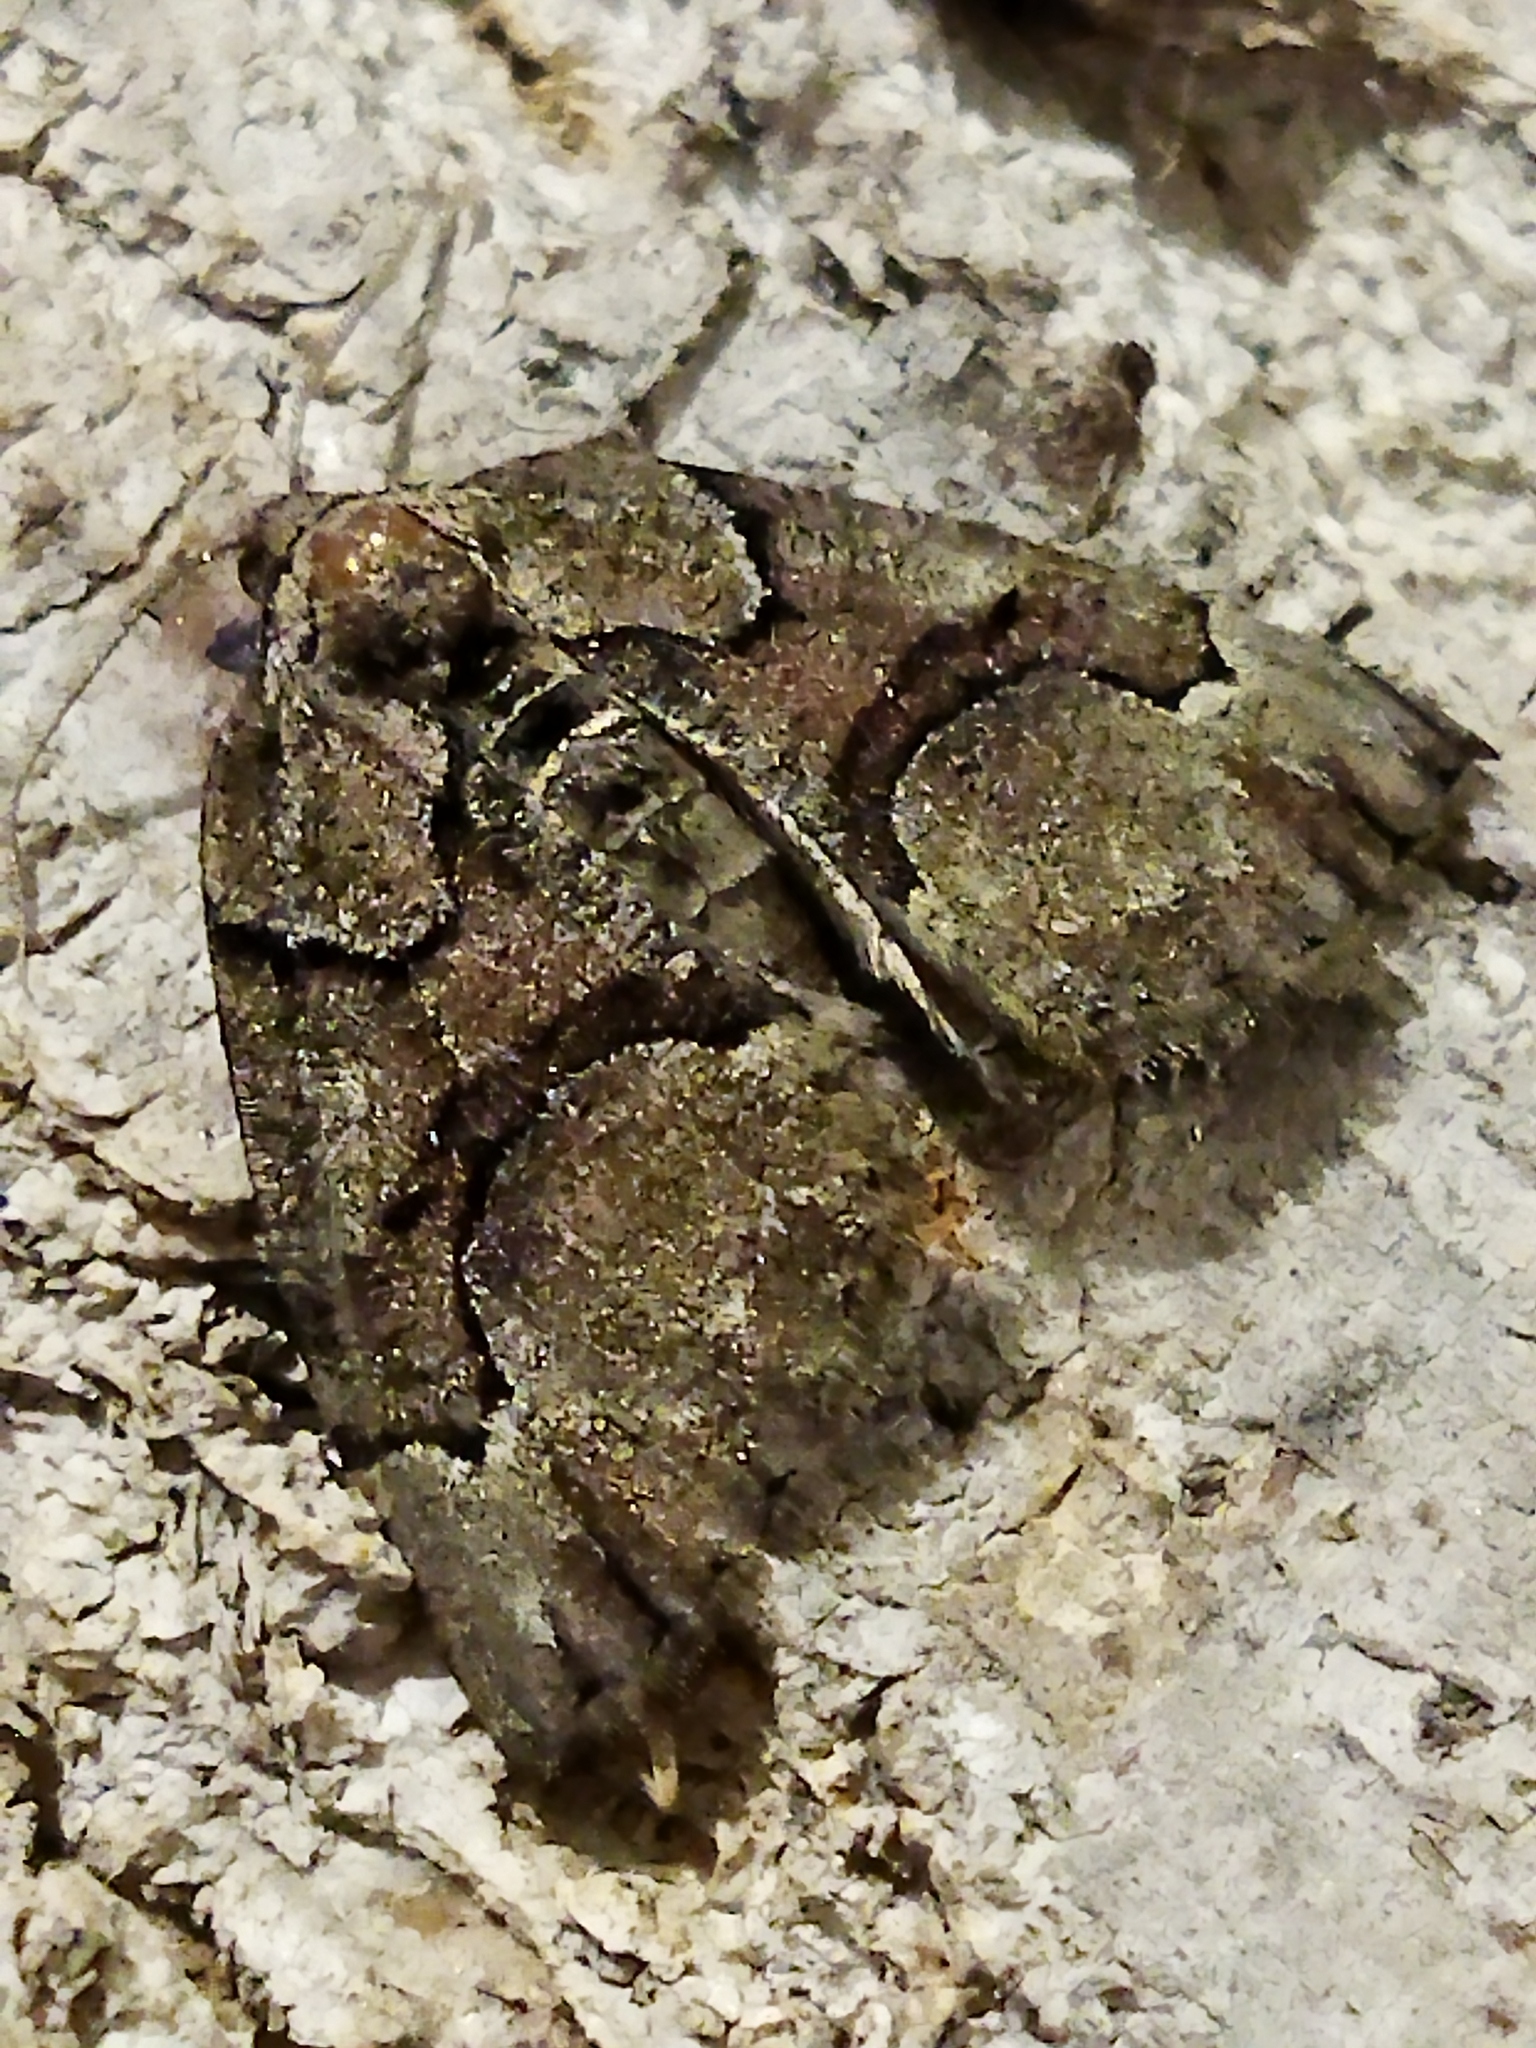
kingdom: Animalia
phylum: Arthropoda
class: Insecta
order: Lepidoptera
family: Geometridae
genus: Asovia
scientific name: Asovia maeoticaria
